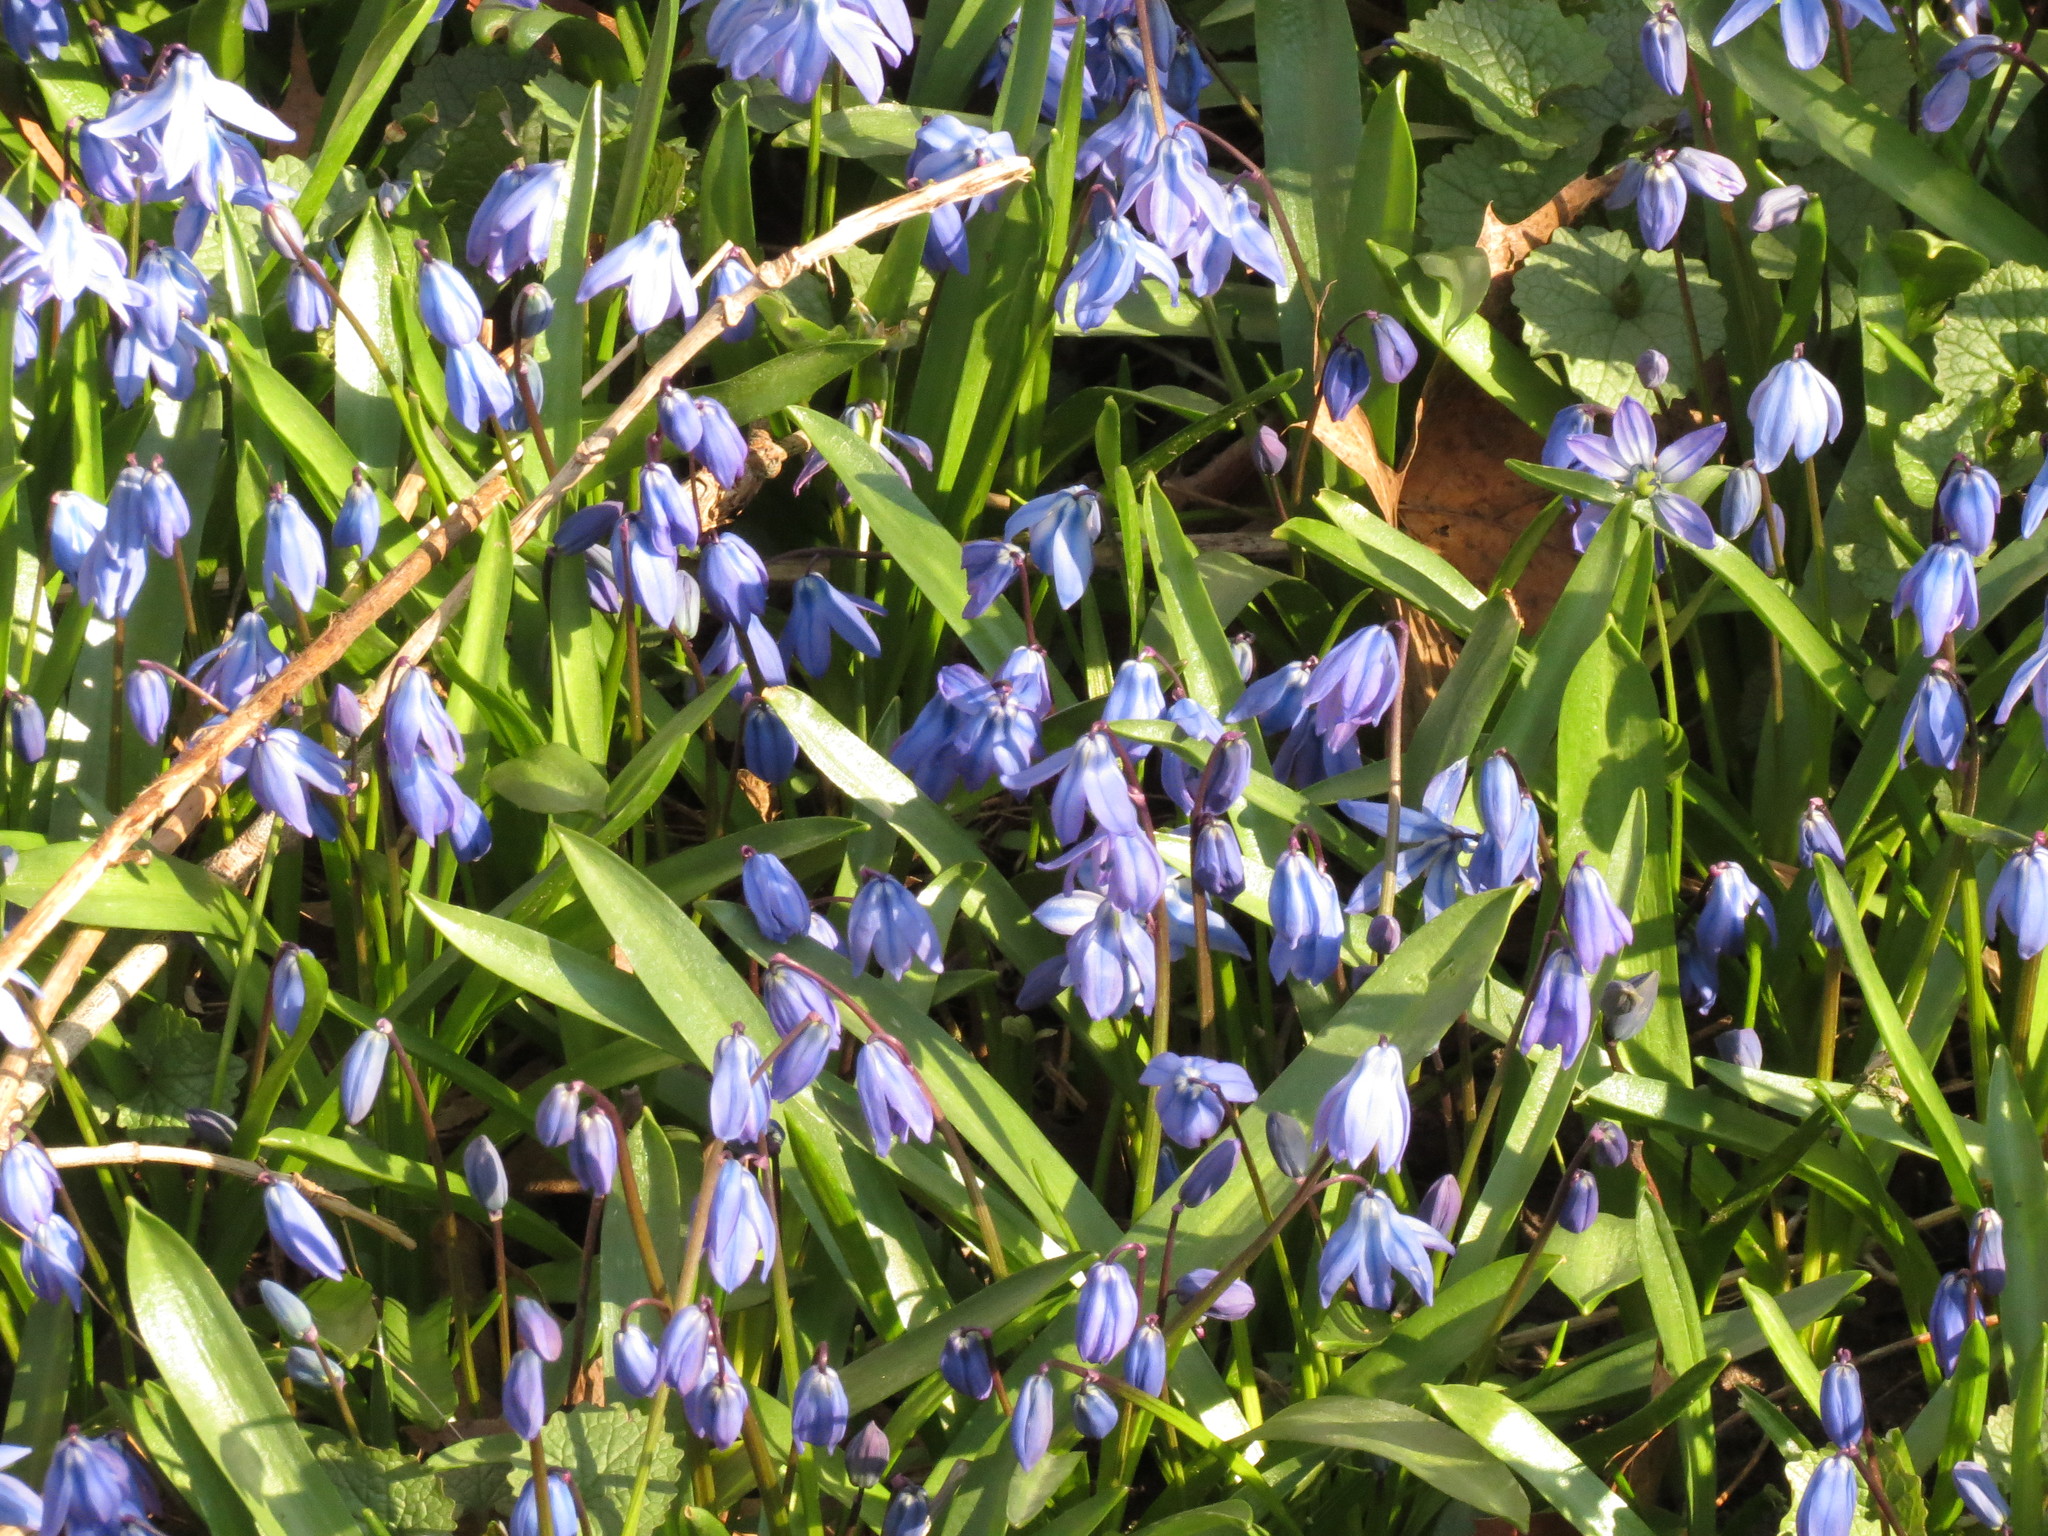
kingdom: Plantae
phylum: Tracheophyta
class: Liliopsida
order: Asparagales
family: Asparagaceae
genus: Scilla
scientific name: Scilla siberica
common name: Siberian squill
